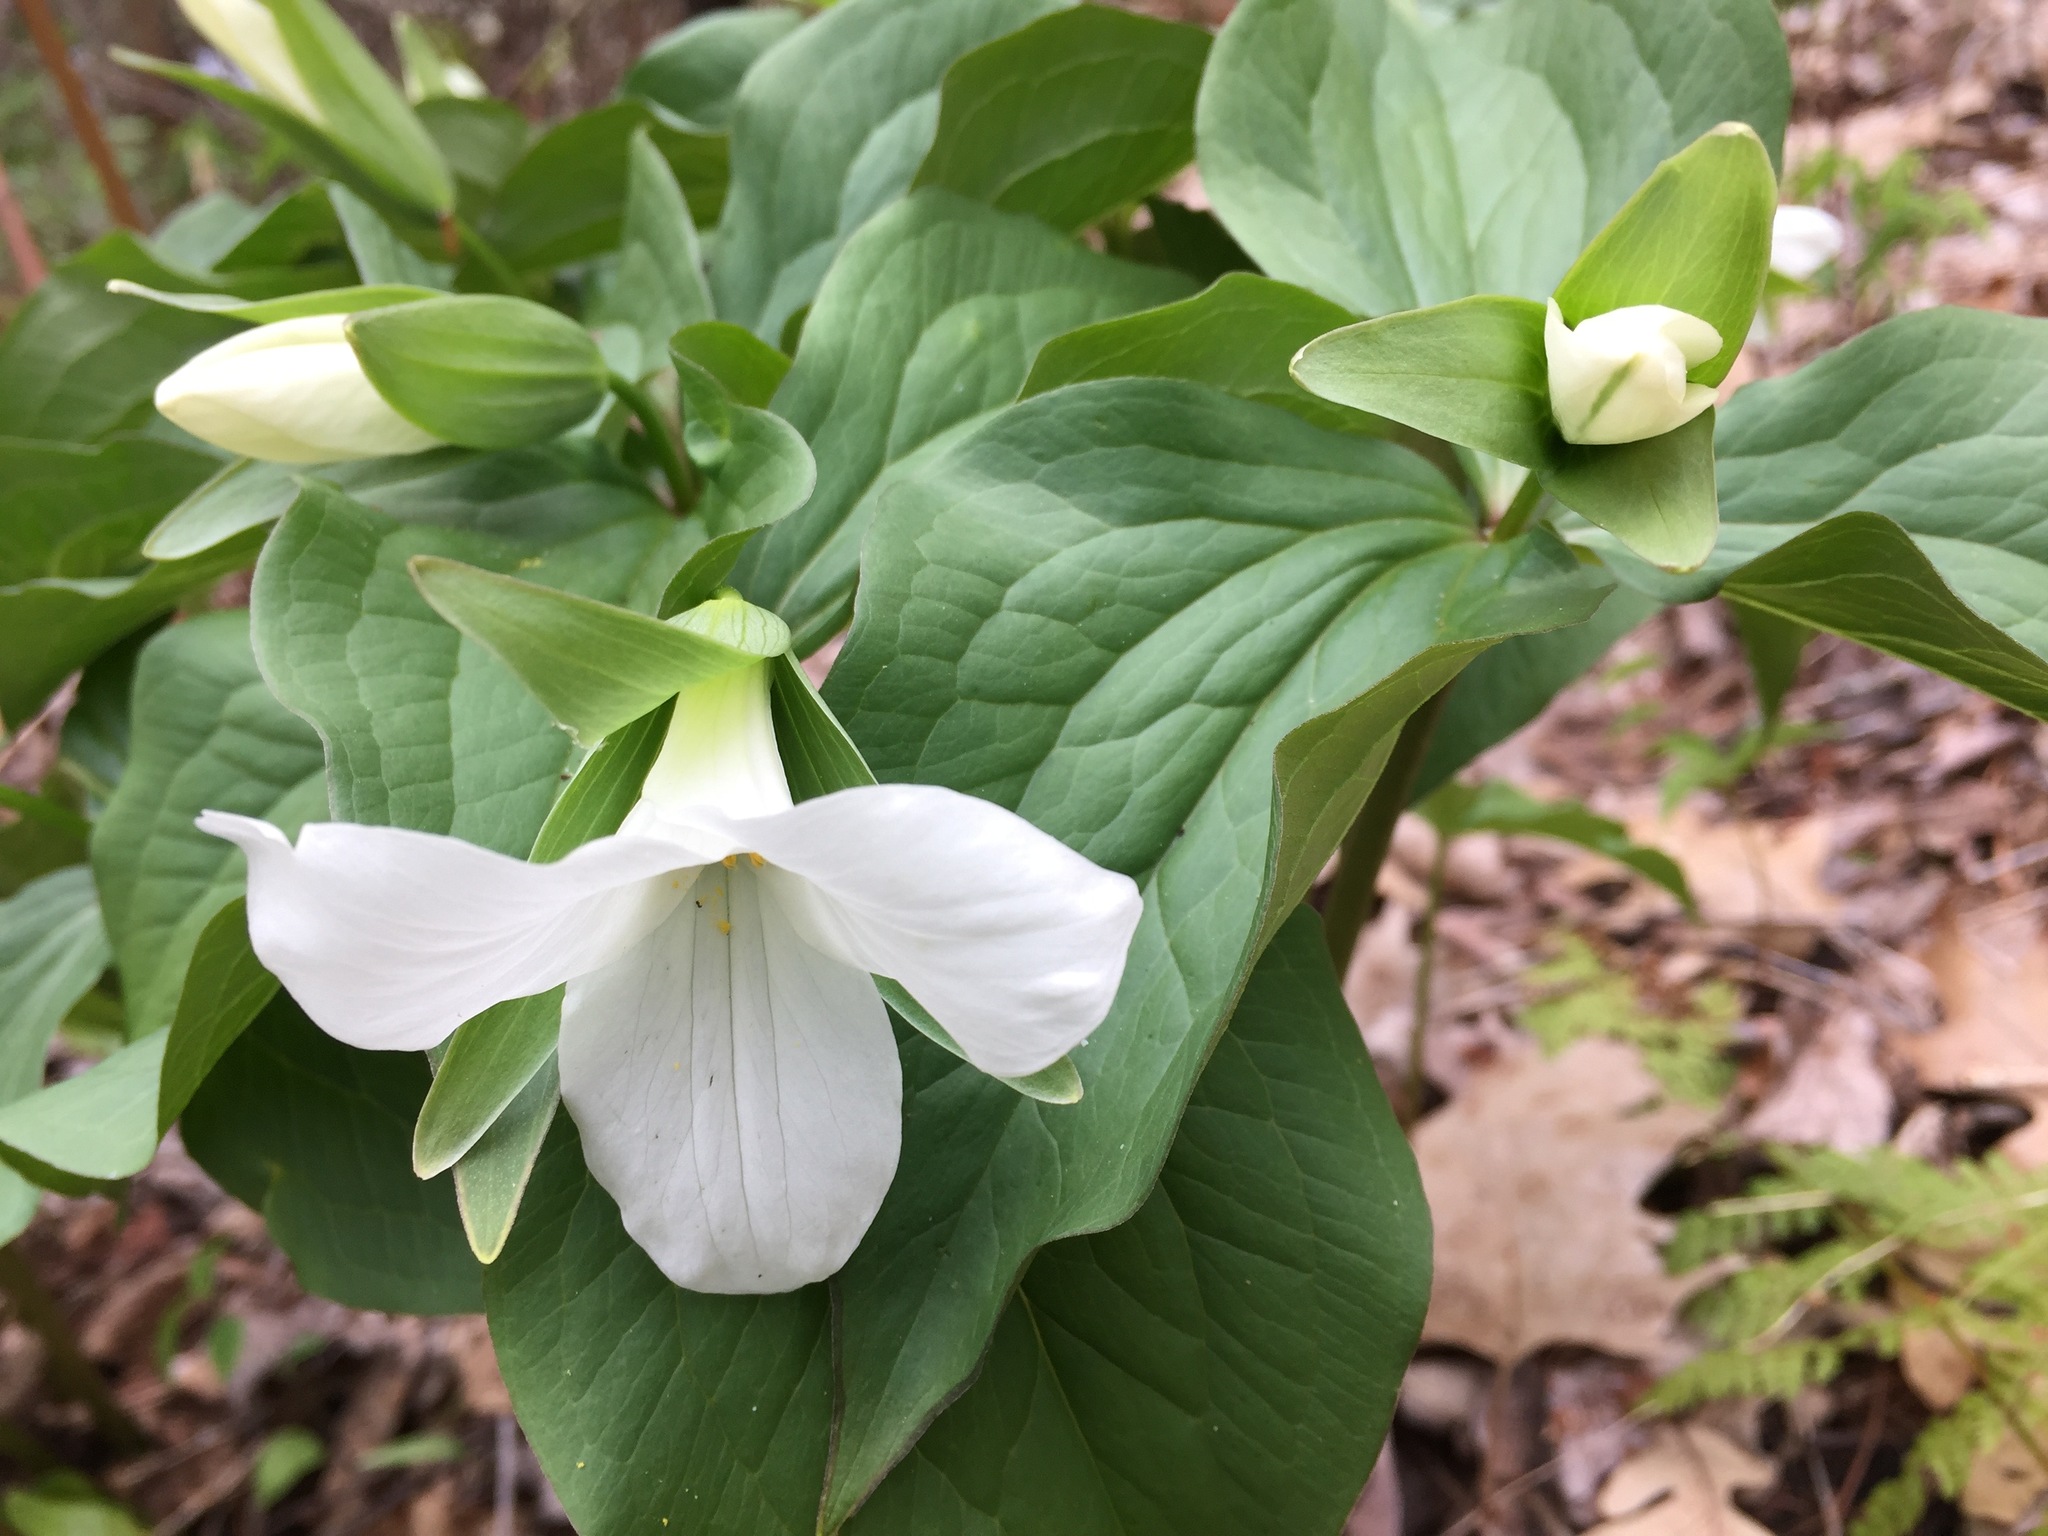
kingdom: Plantae
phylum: Tracheophyta
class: Liliopsida
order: Liliales
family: Melanthiaceae
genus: Trillium
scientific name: Trillium grandiflorum
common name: Great white trillium
